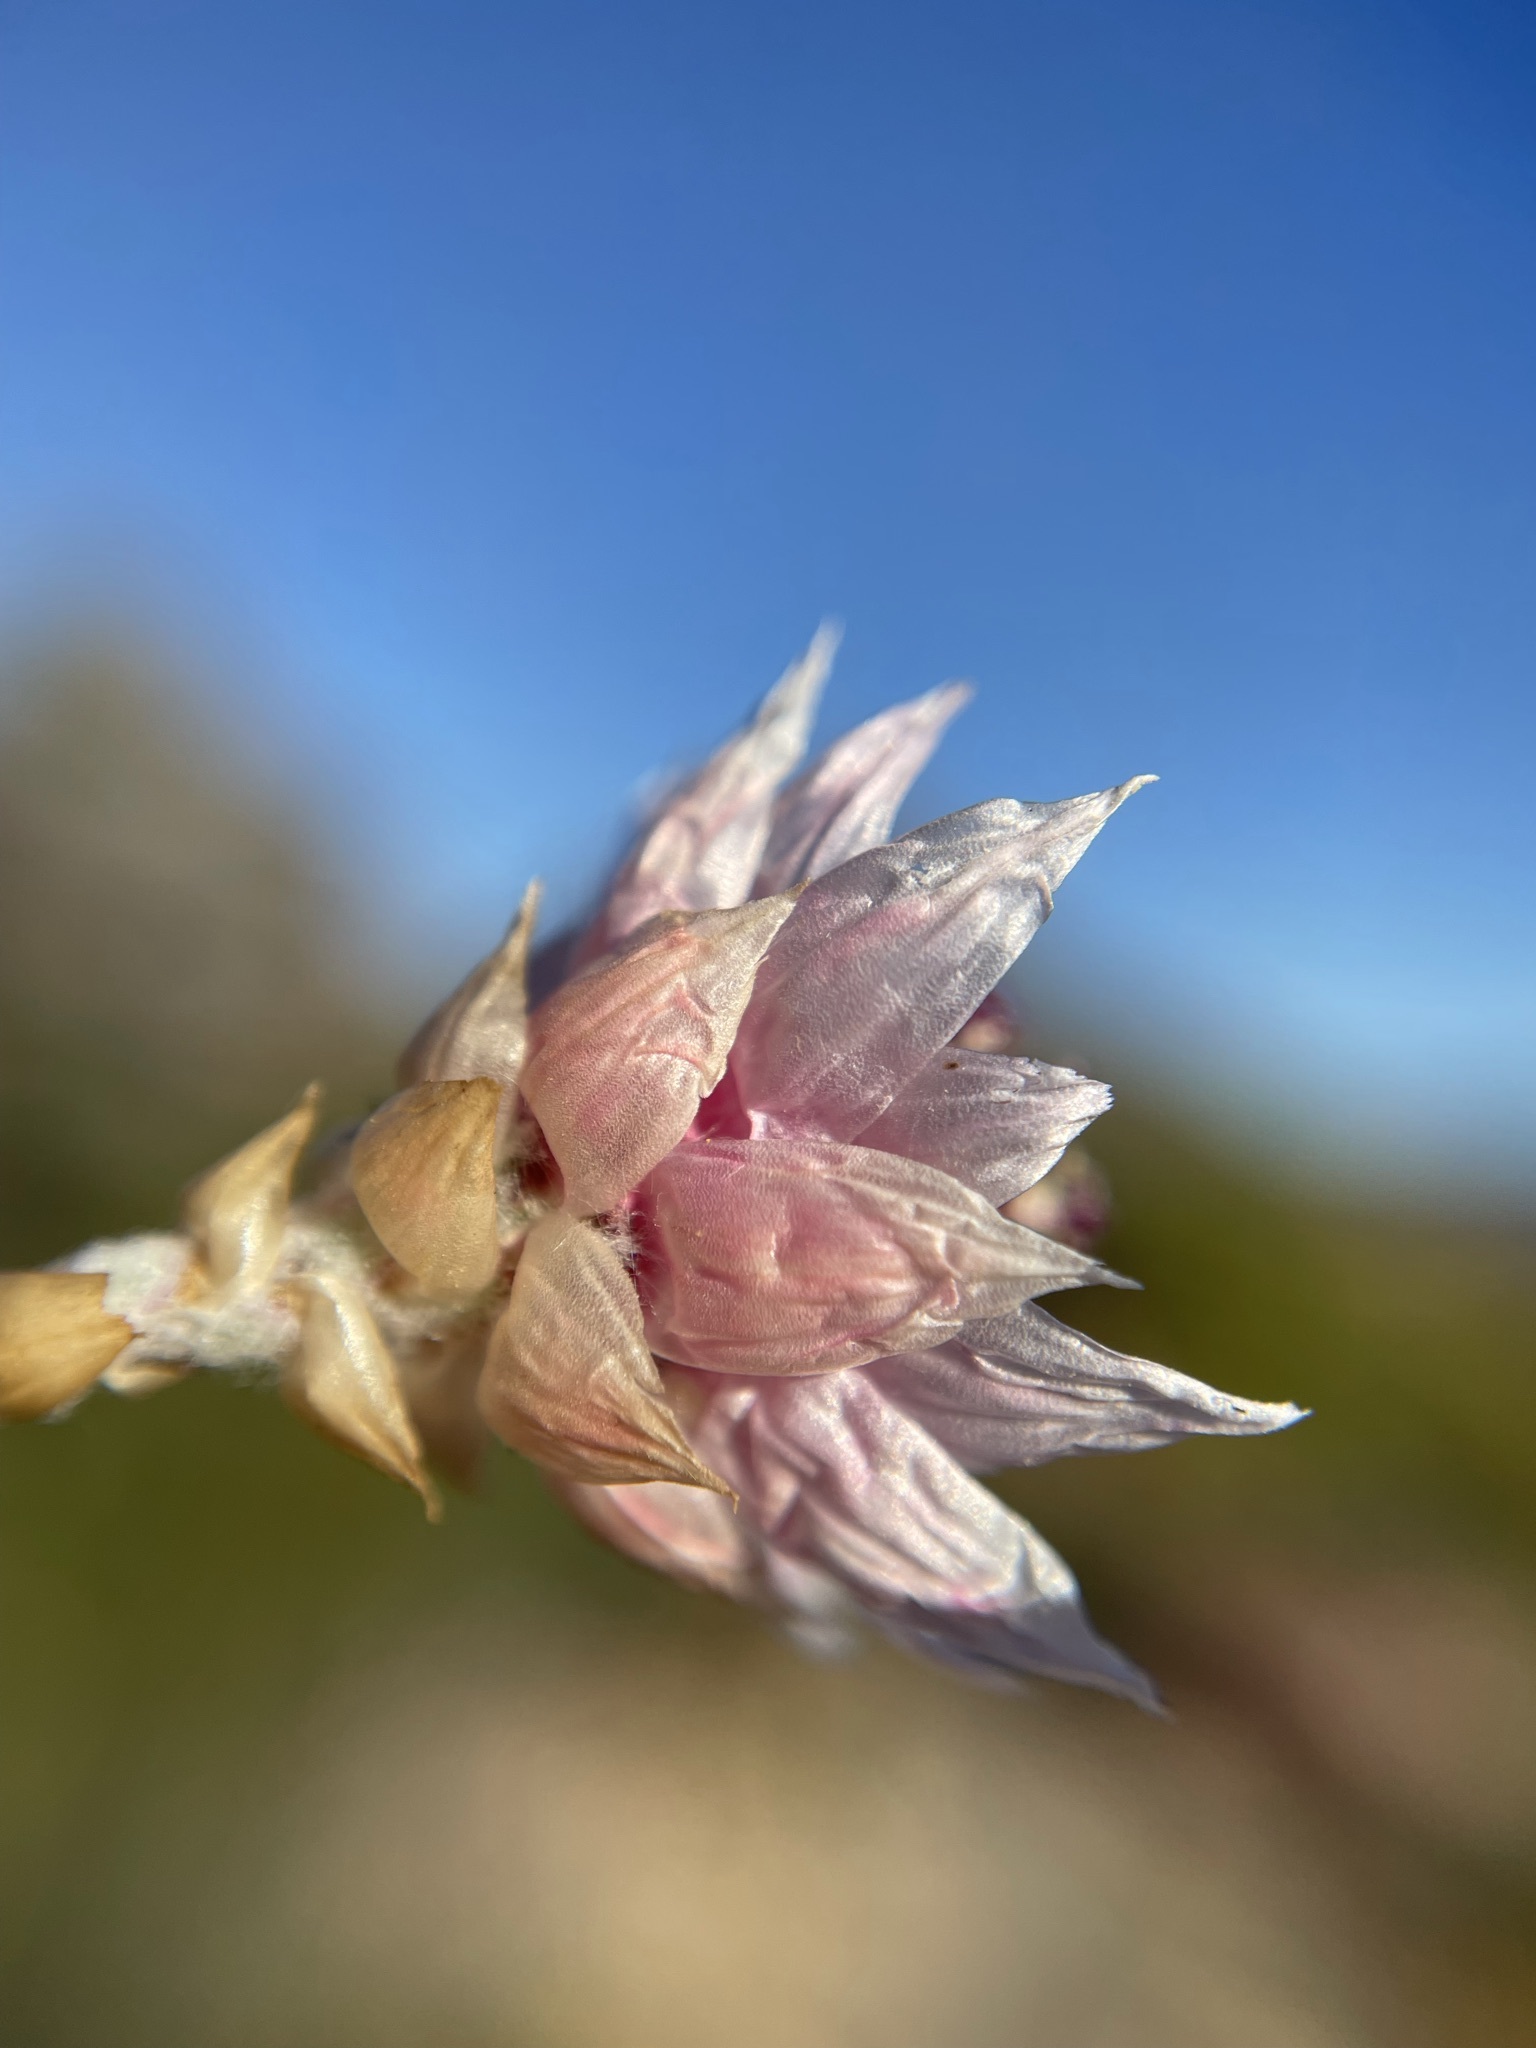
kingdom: Plantae
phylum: Tracheophyta
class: Magnoliopsida
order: Asterales
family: Asteraceae
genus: Syncarpha
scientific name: Syncarpha canescens
